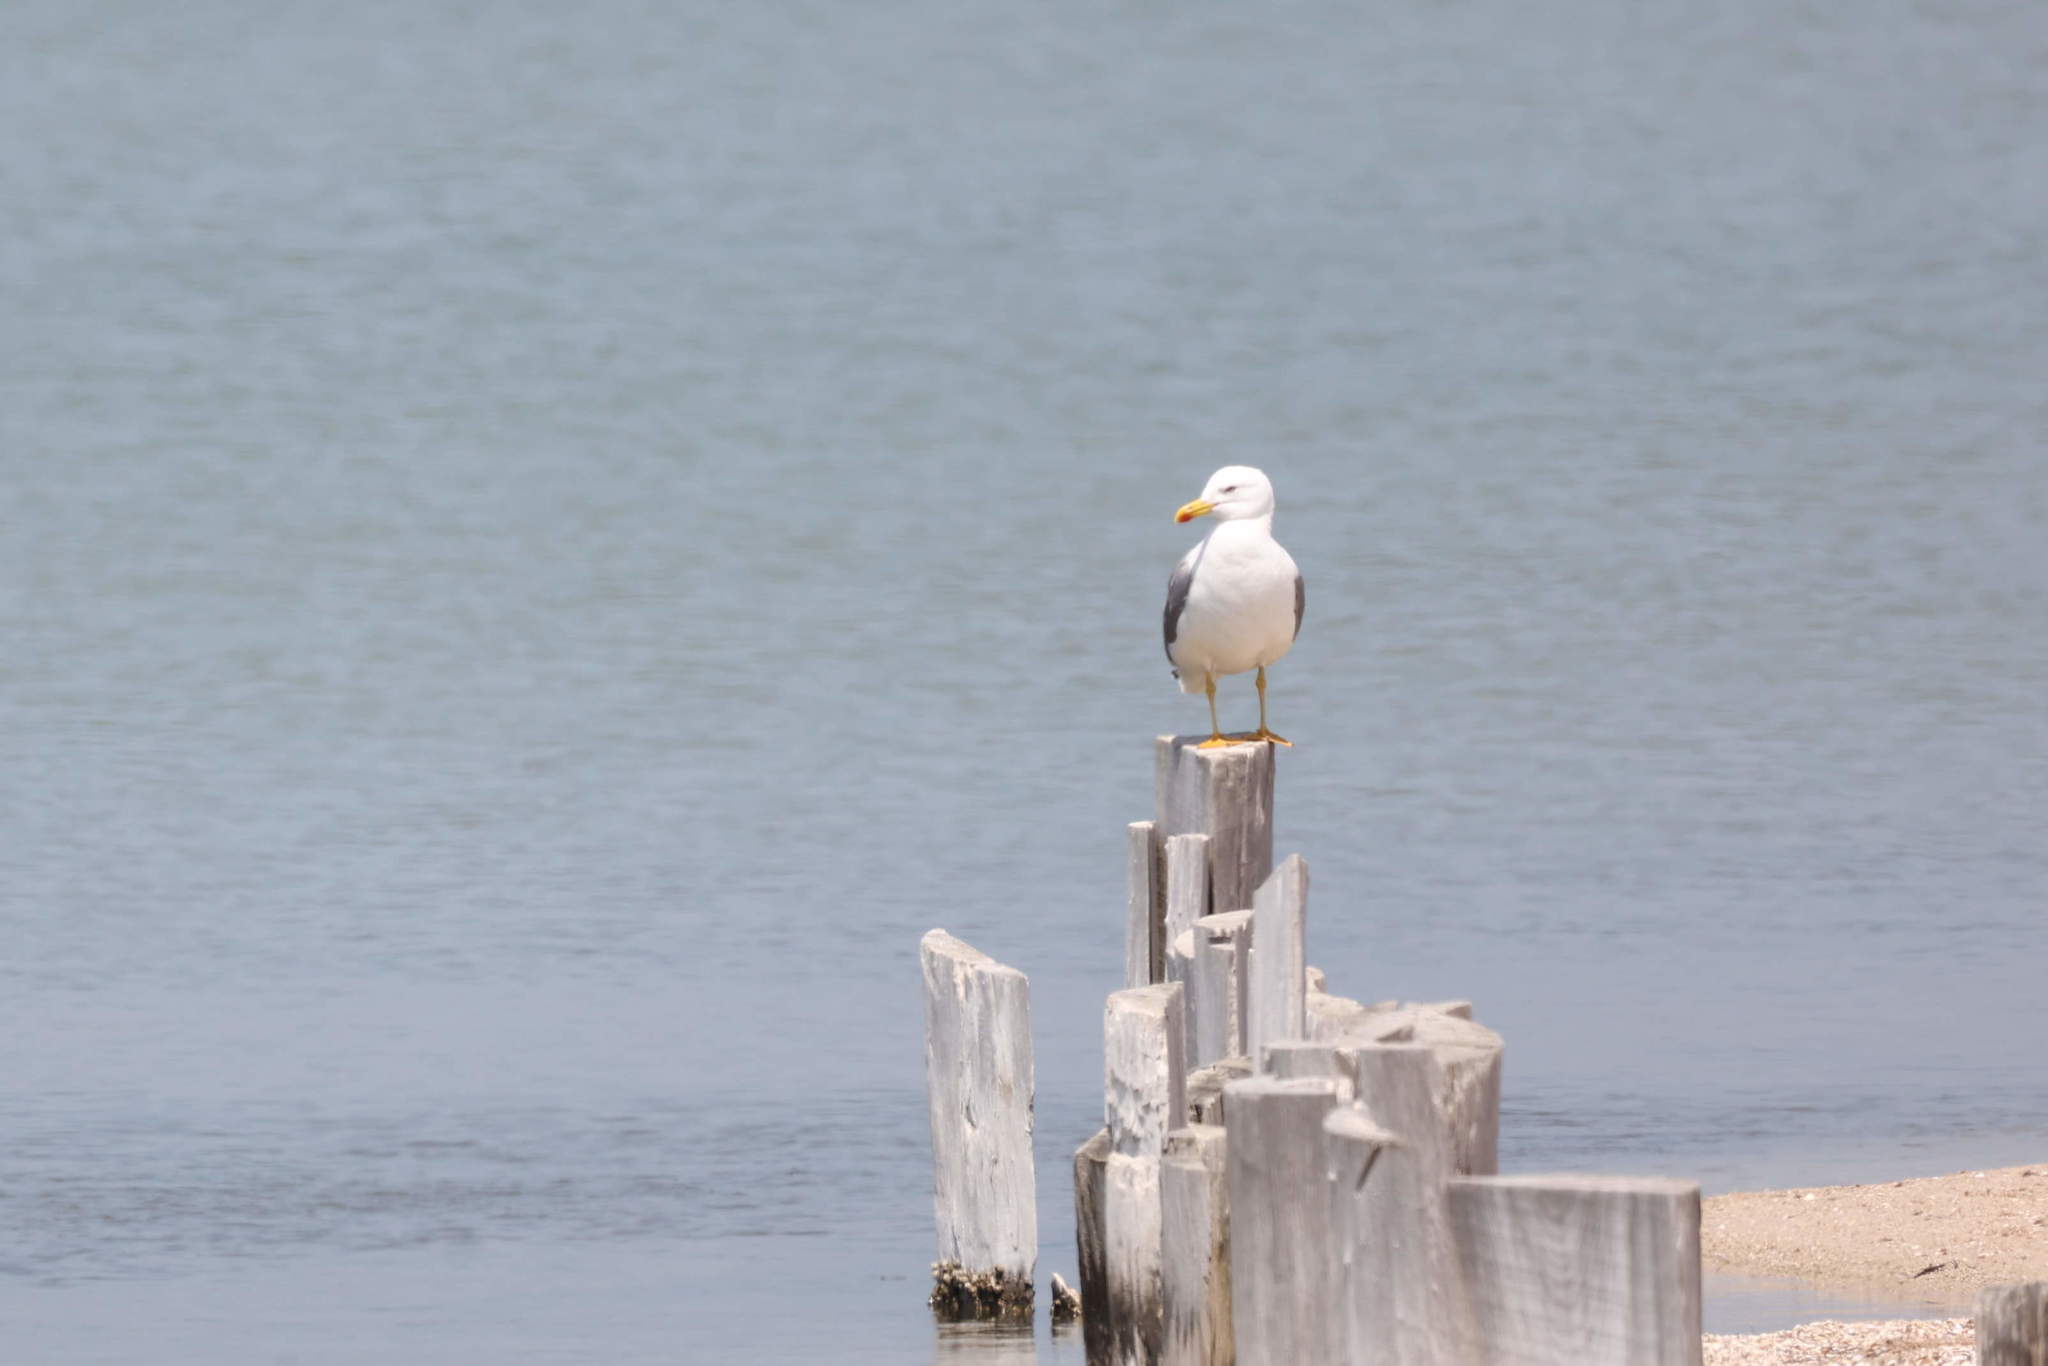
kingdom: Animalia
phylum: Chordata
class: Aves
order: Charadriiformes
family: Laridae
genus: Larus
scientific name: Larus michahellis
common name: Yellow-legged gull
